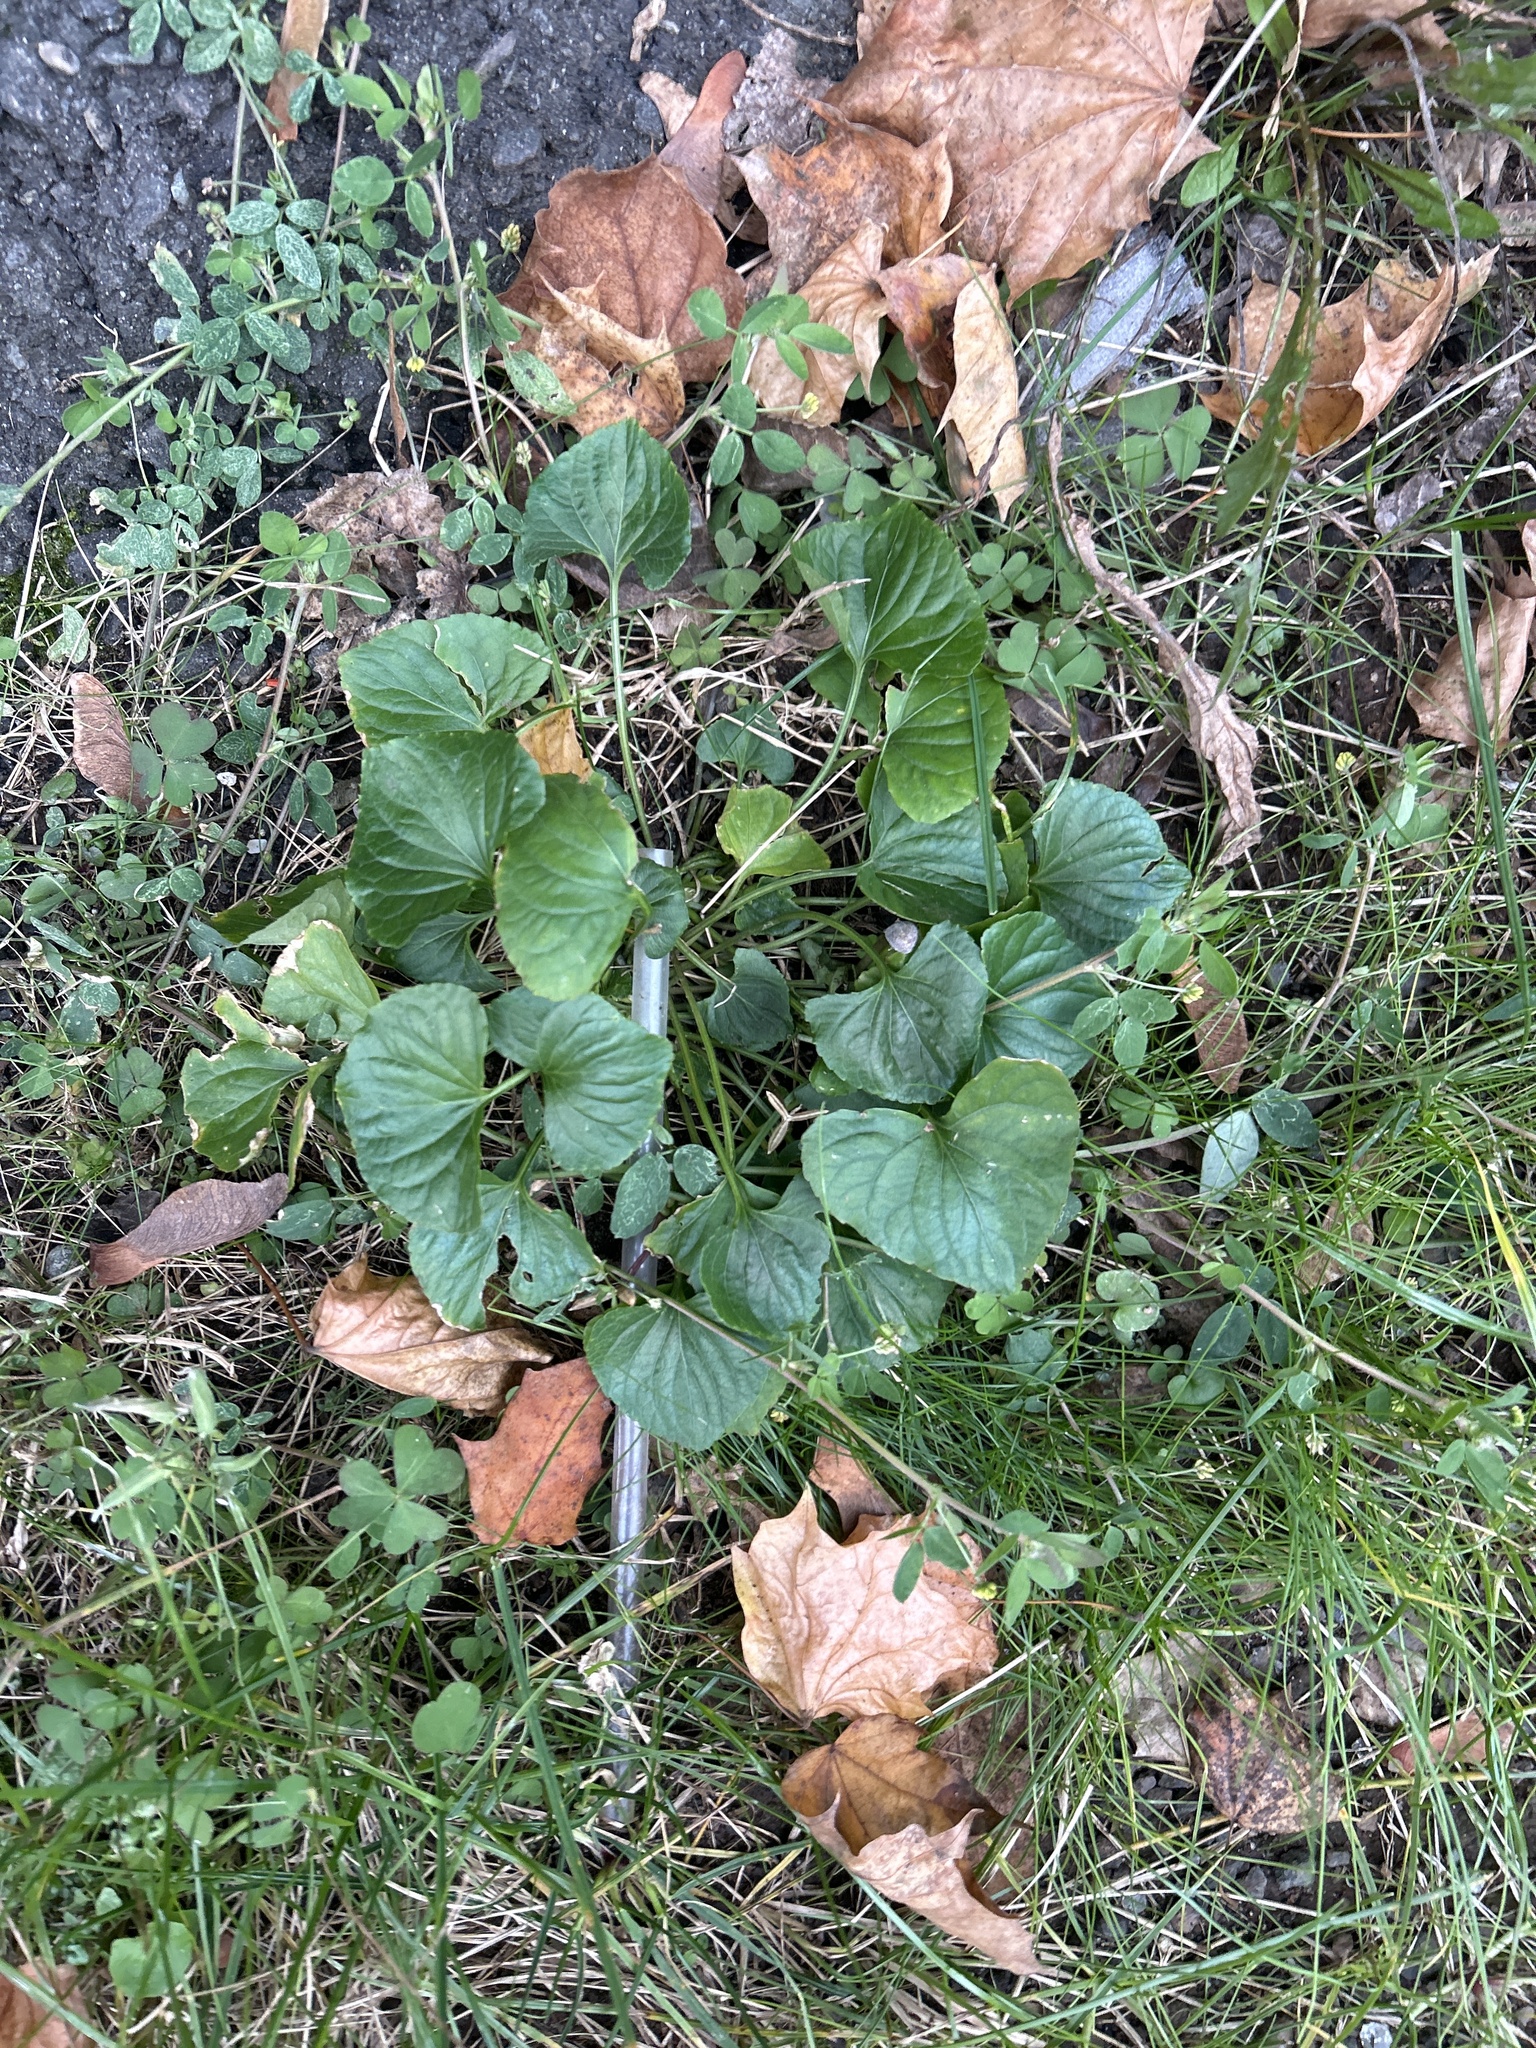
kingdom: Plantae
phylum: Tracheophyta
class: Magnoliopsida
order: Malpighiales
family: Violaceae
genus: Viola
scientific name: Viola sororia
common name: Dooryard violet
